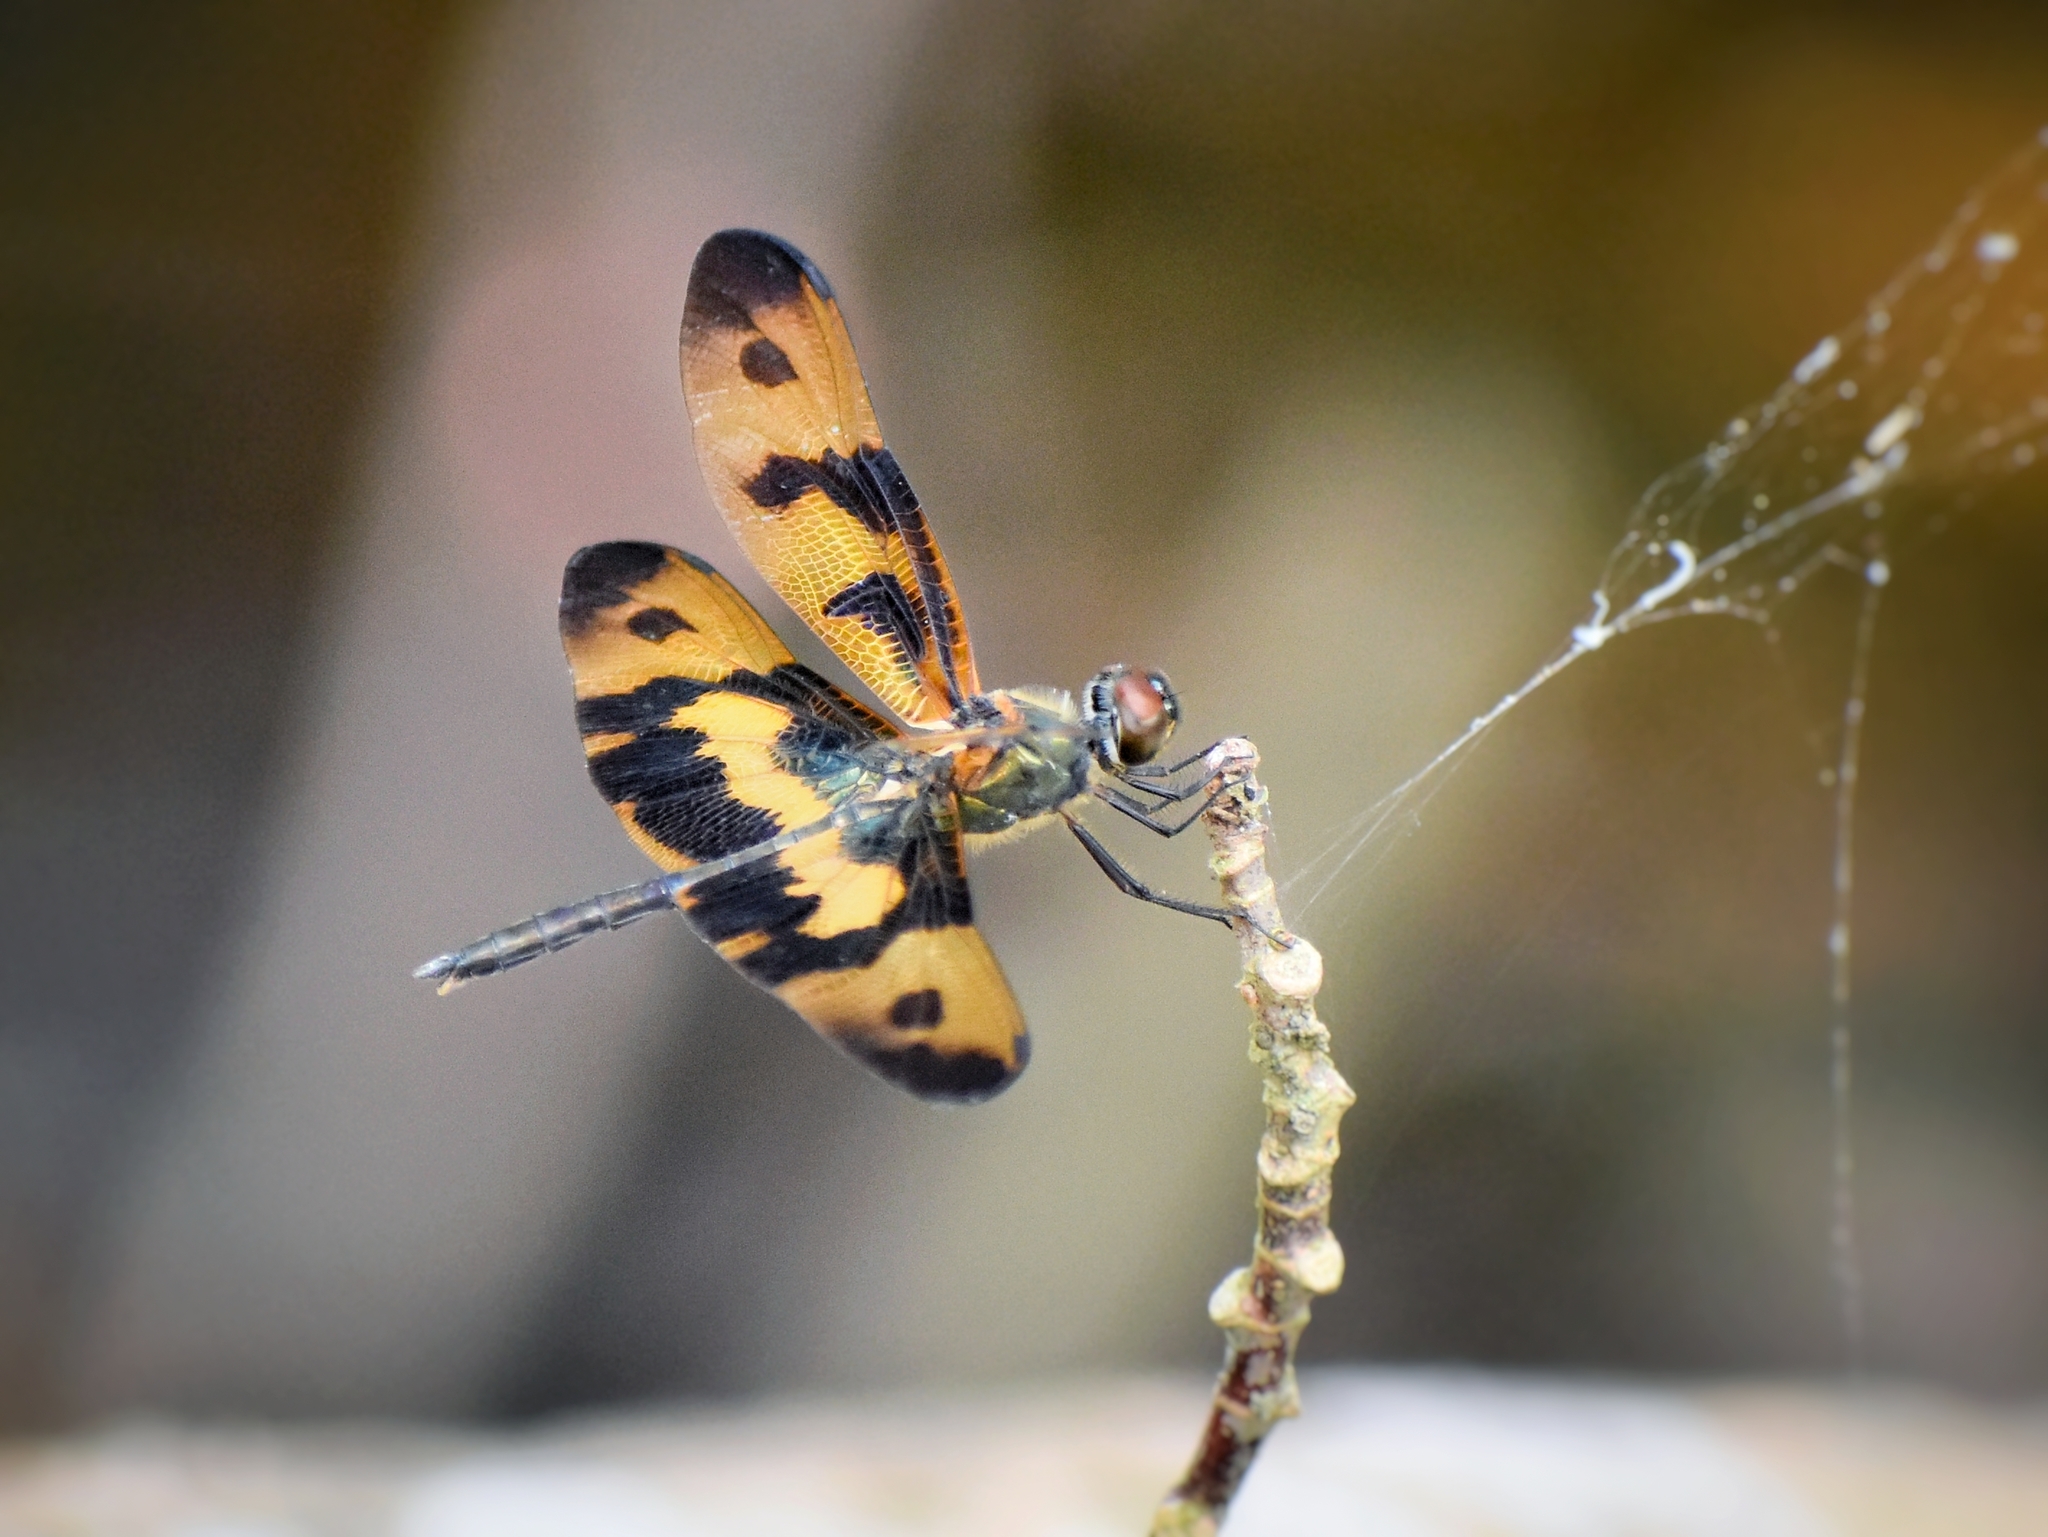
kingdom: Animalia
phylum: Arthropoda
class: Insecta
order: Odonata
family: Libellulidae
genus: Rhyothemis
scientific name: Rhyothemis variegata
